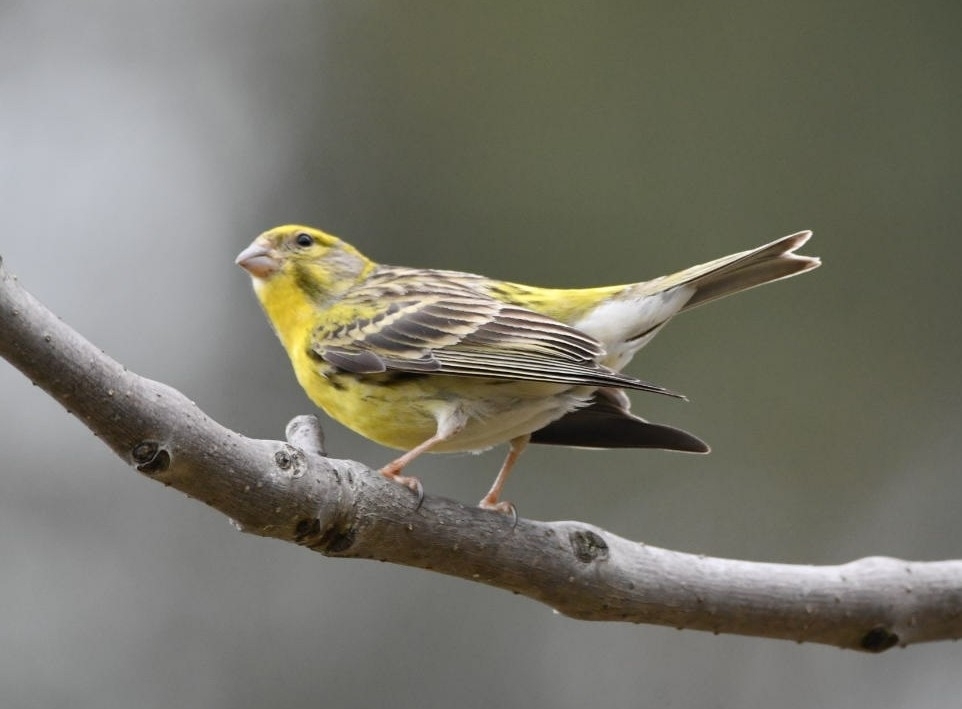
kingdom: Animalia
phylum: Chordata
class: Aves
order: Passeriformes
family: Fringillidae
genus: Serinus
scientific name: Serinus serinus
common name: European serin
